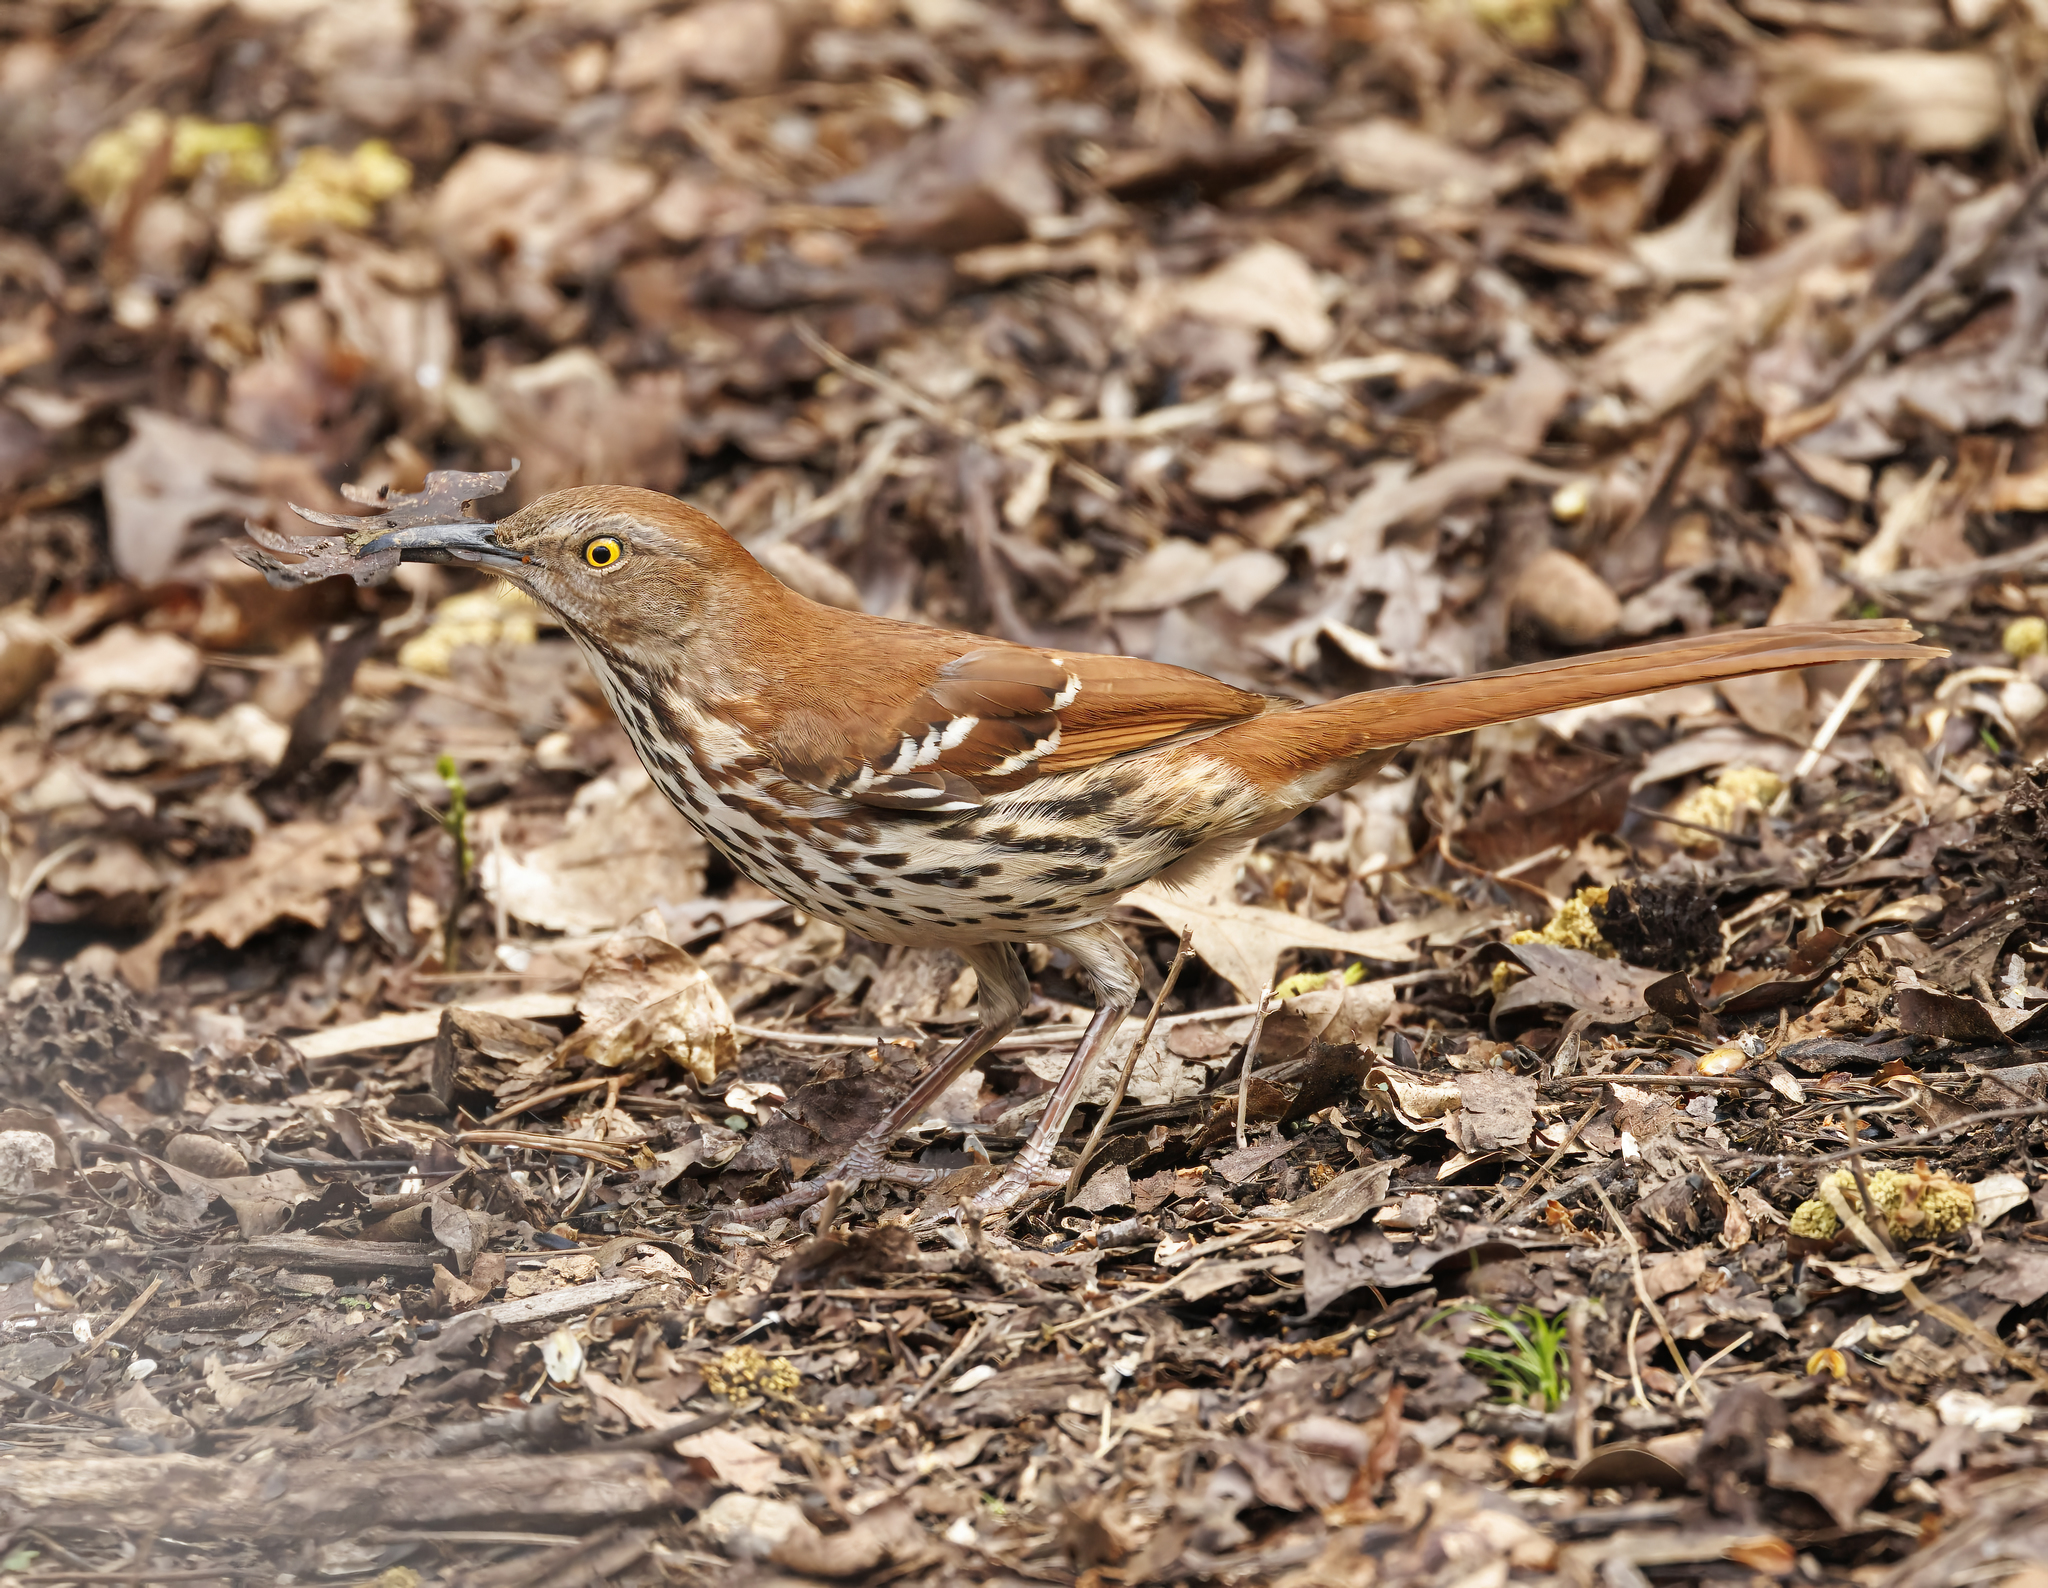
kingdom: Animalia
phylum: Chordata
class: Aves
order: Passeriformes
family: Mimidae
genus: Toxostoma
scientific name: Toxostoma rufum
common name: Brown thrasher
